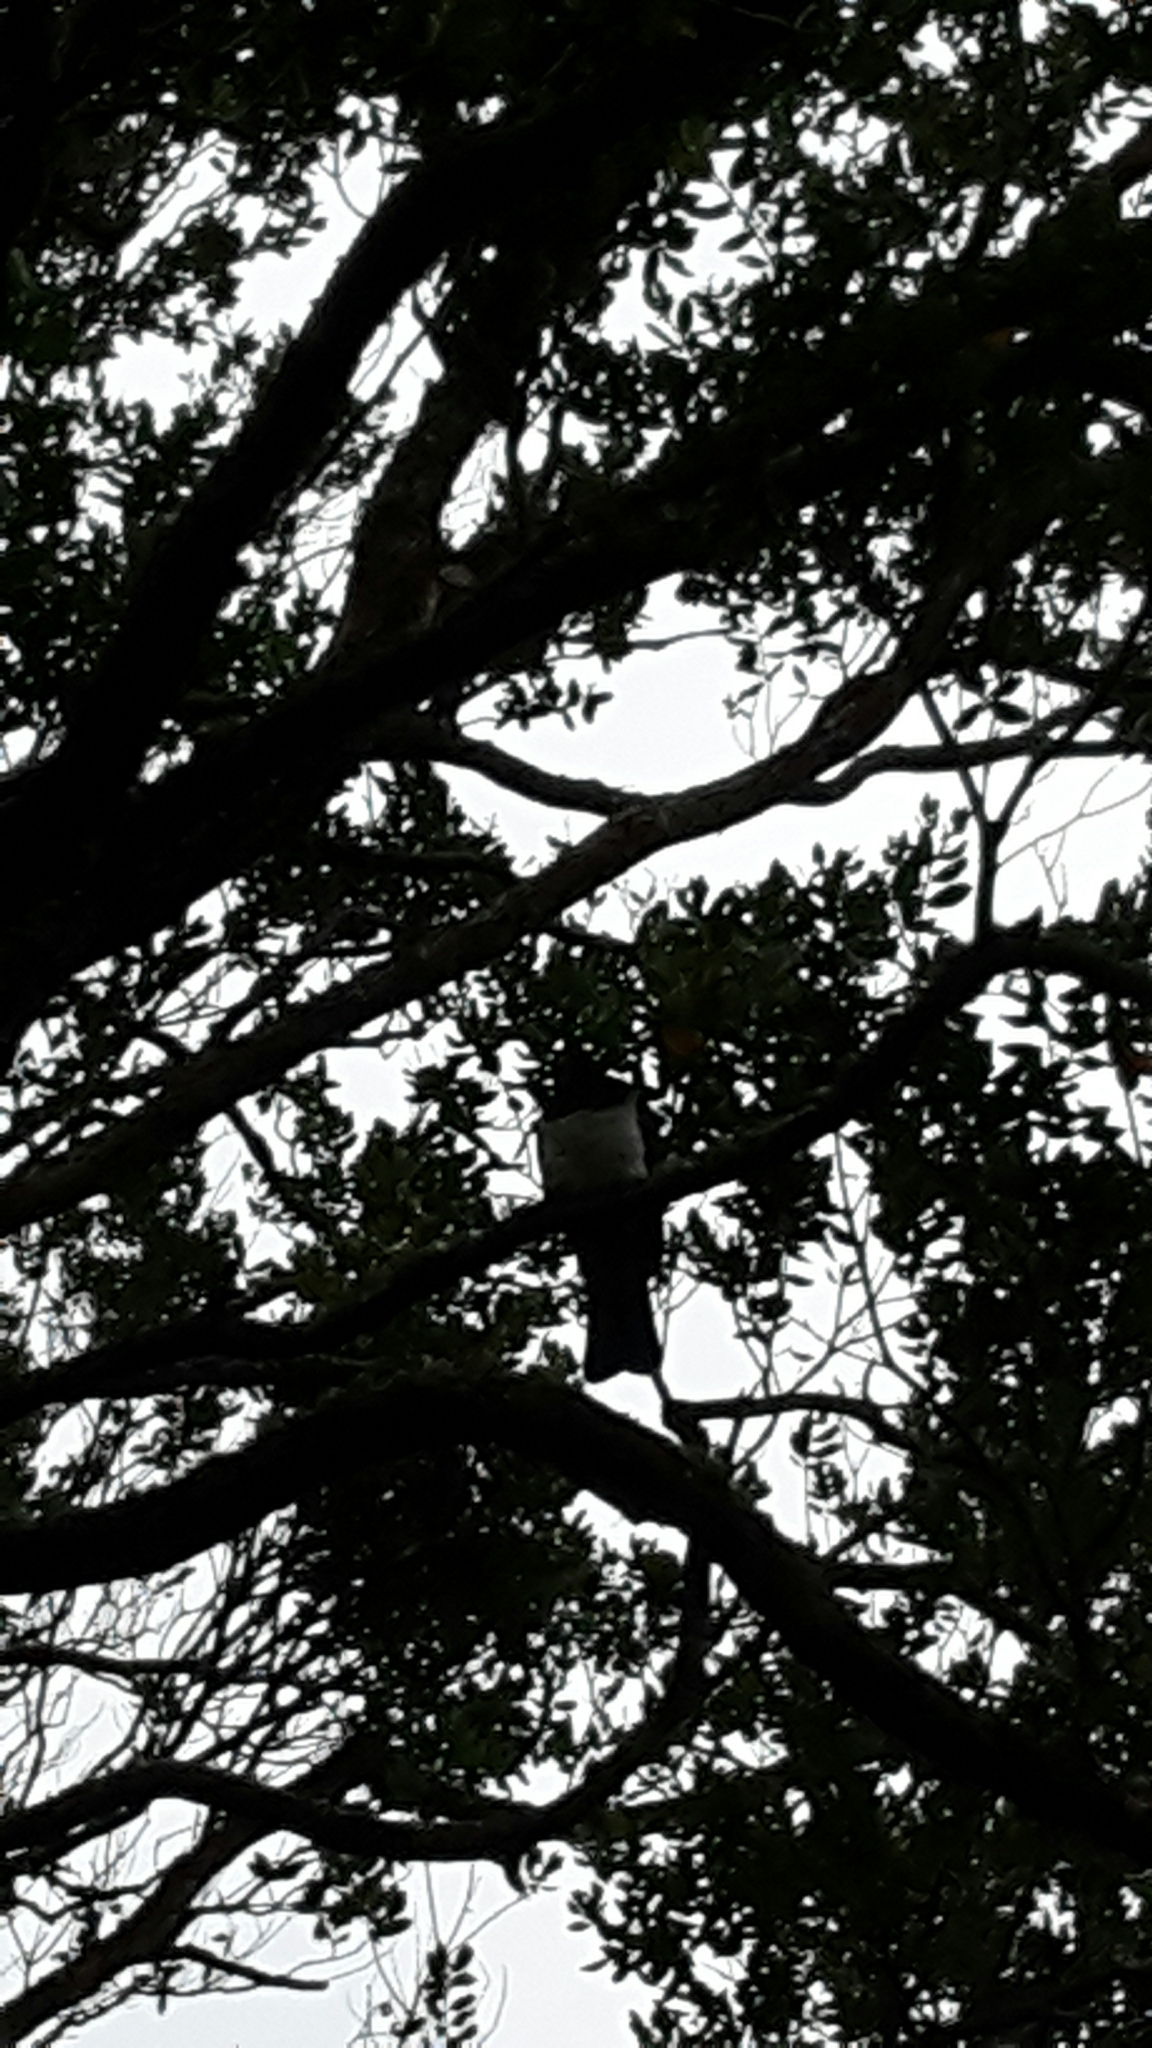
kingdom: Animalia
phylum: Chordata
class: Aves
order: Columbiformes
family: Columbidae
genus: Hemiphaga
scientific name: Hemiphaga novaeseelandiae
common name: New zealand pigeon
